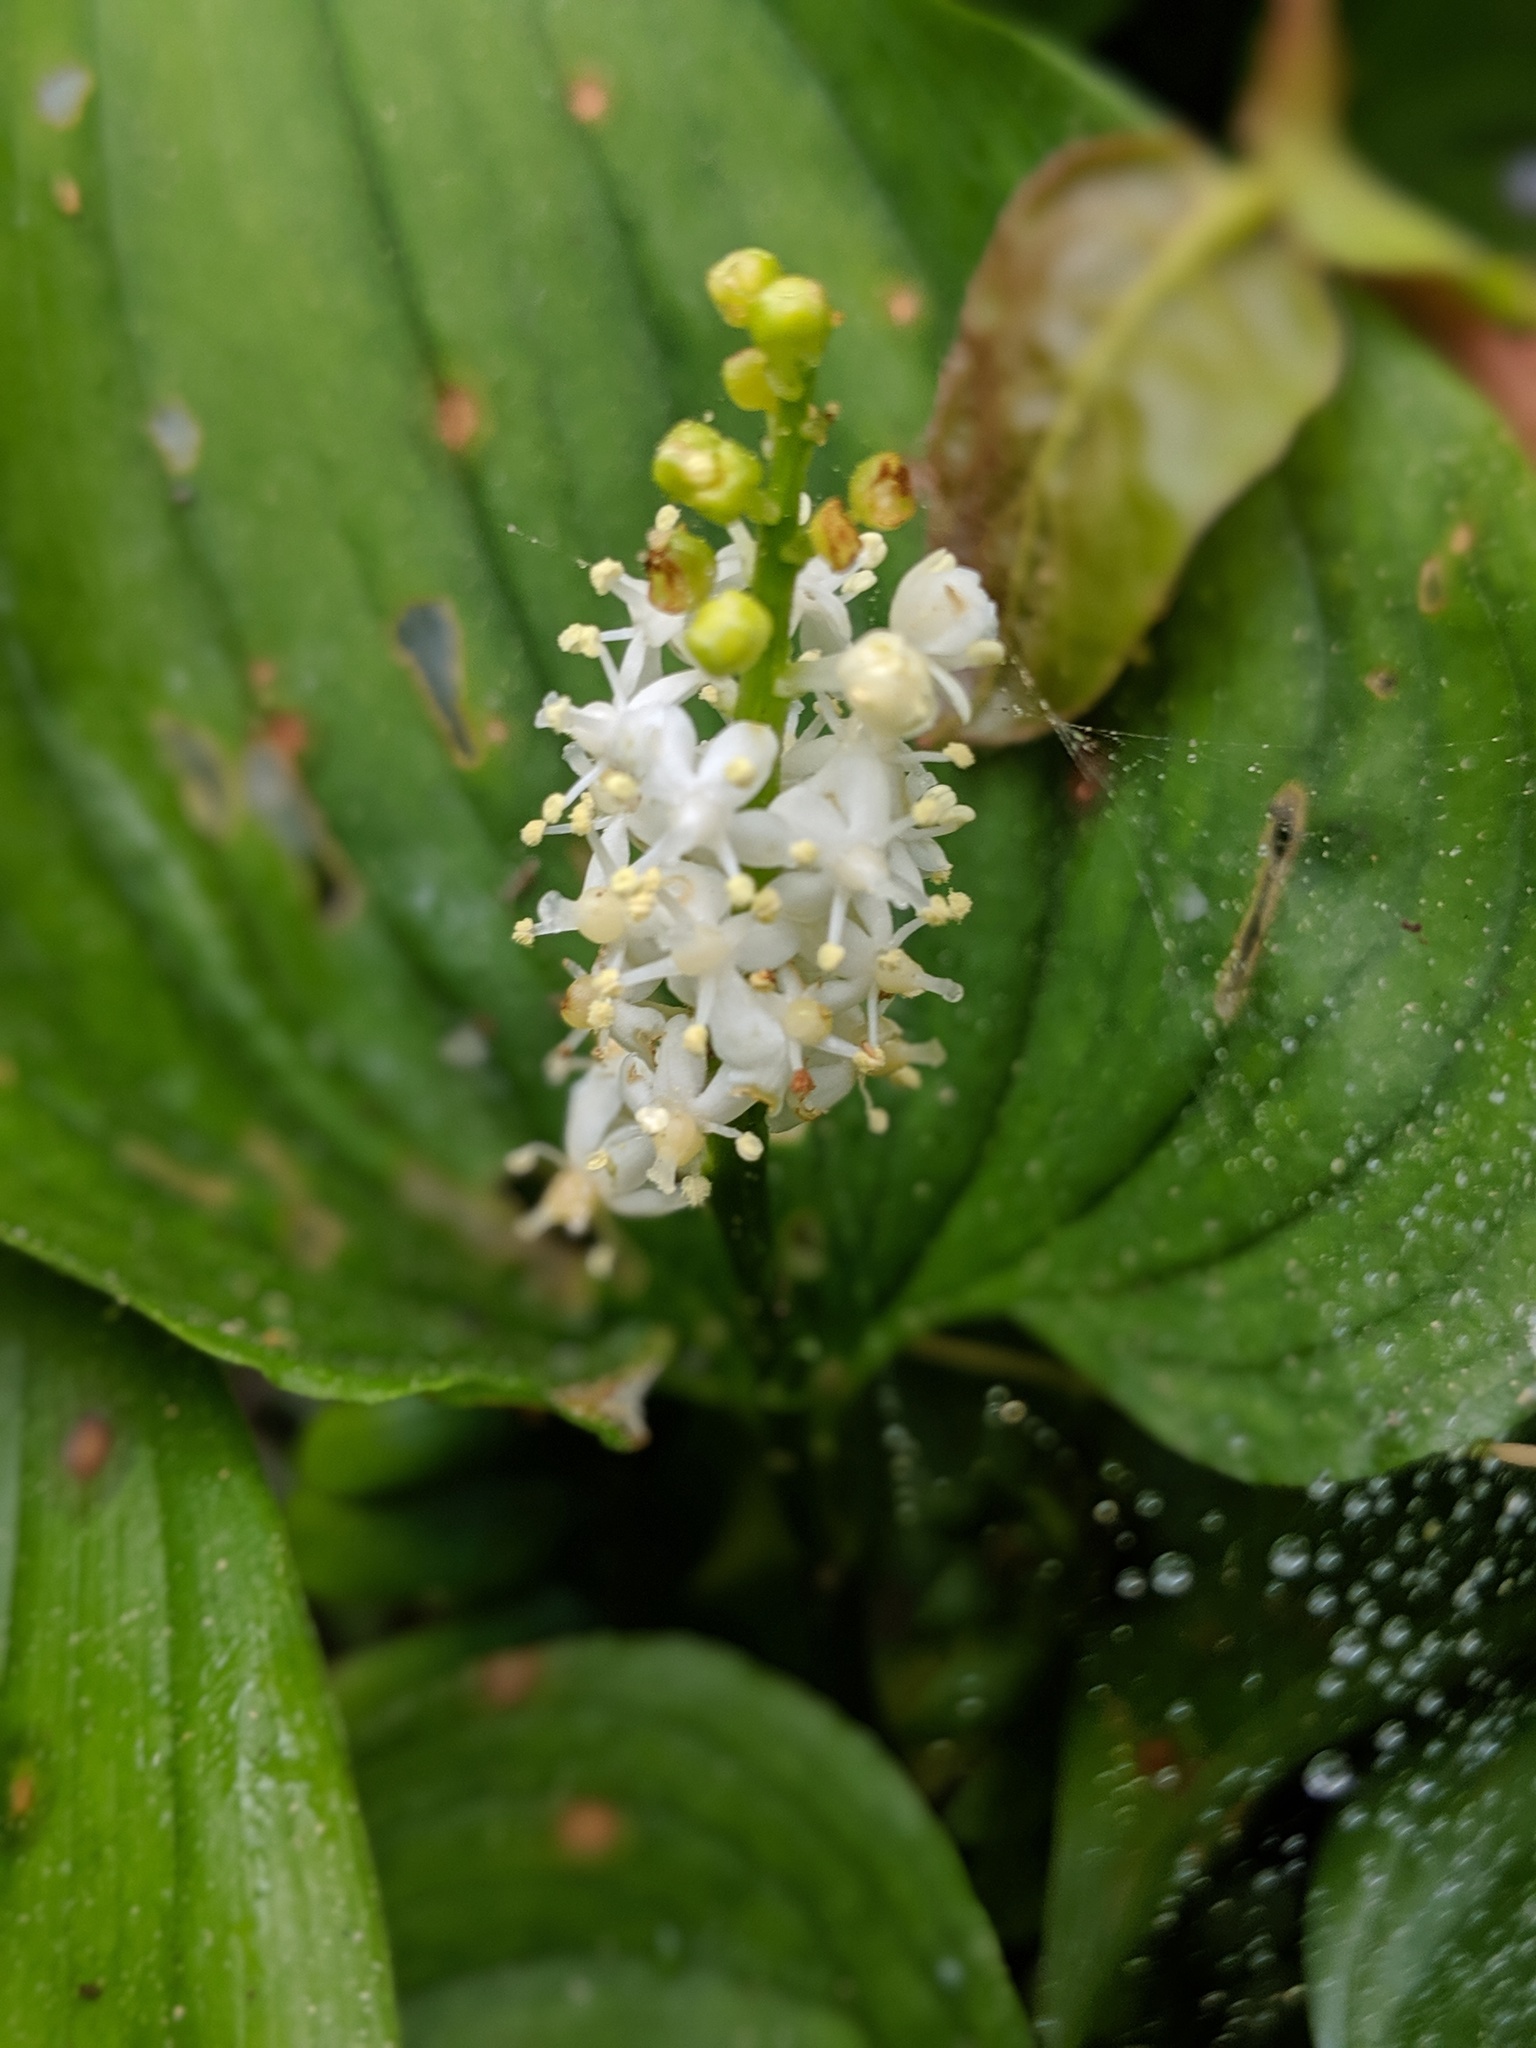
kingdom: Plantae
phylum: Tracheophyta
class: Liliopsida
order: Asparagales
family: Asparagaceae
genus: Maianthemum
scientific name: Maianthemum dilatatum
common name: False lily-of-the-valley
